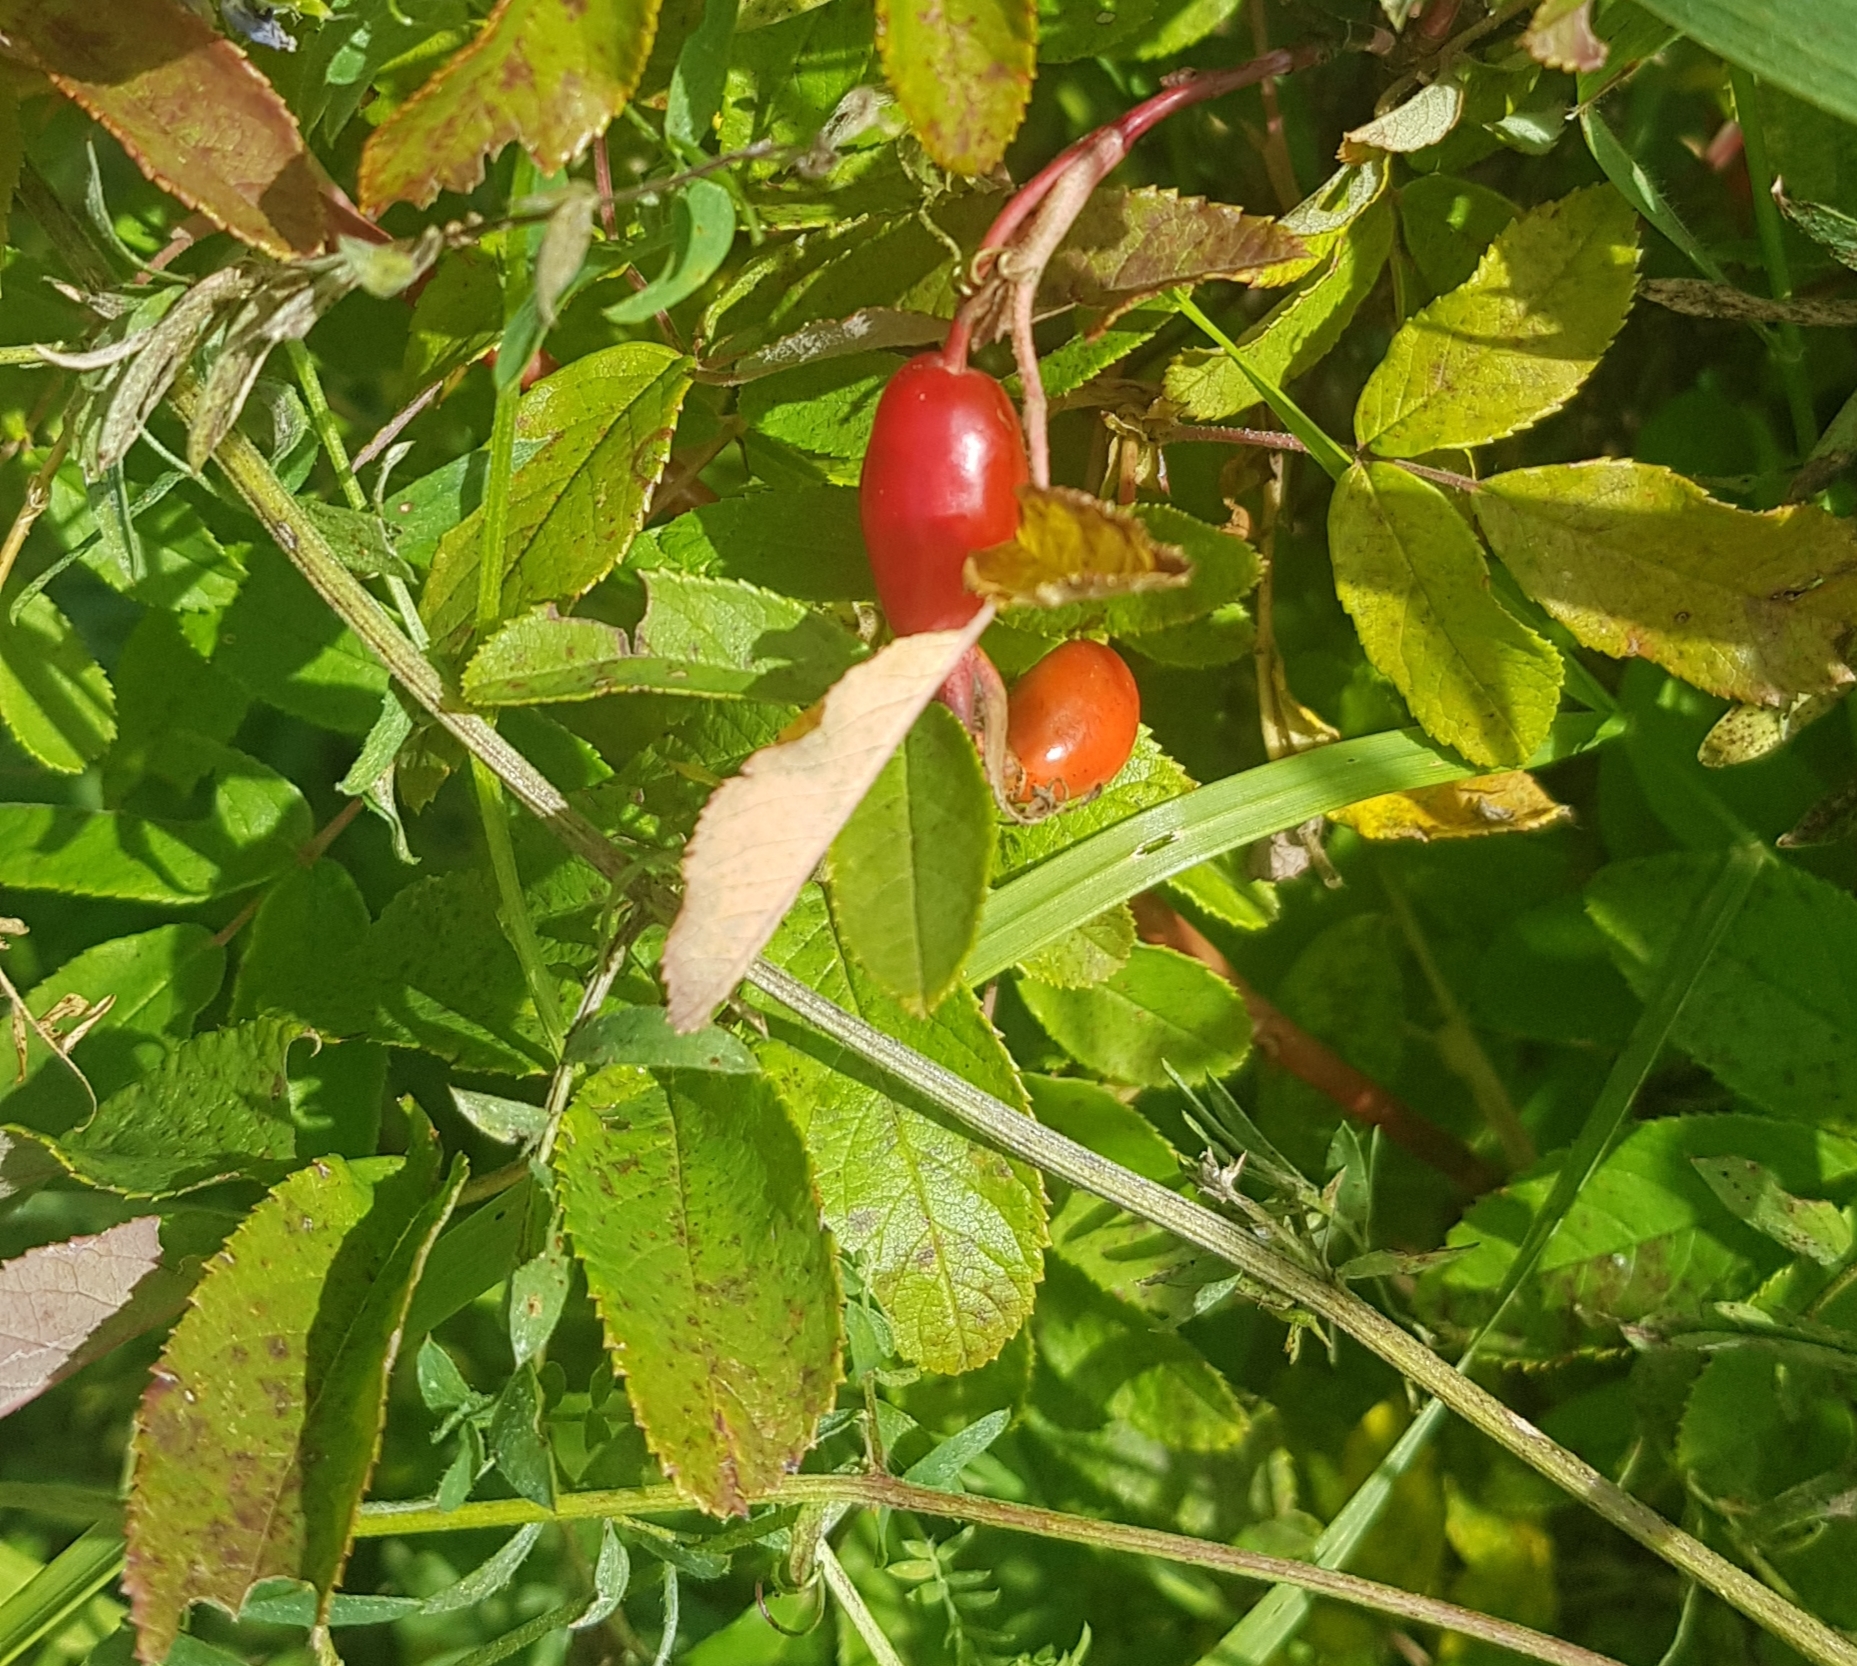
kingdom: Plantae
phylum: Tracheophyta
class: Magnoliopsida
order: Rosales
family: Rosaceae
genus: Rosa
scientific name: Rosa davurica
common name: Amur rose
